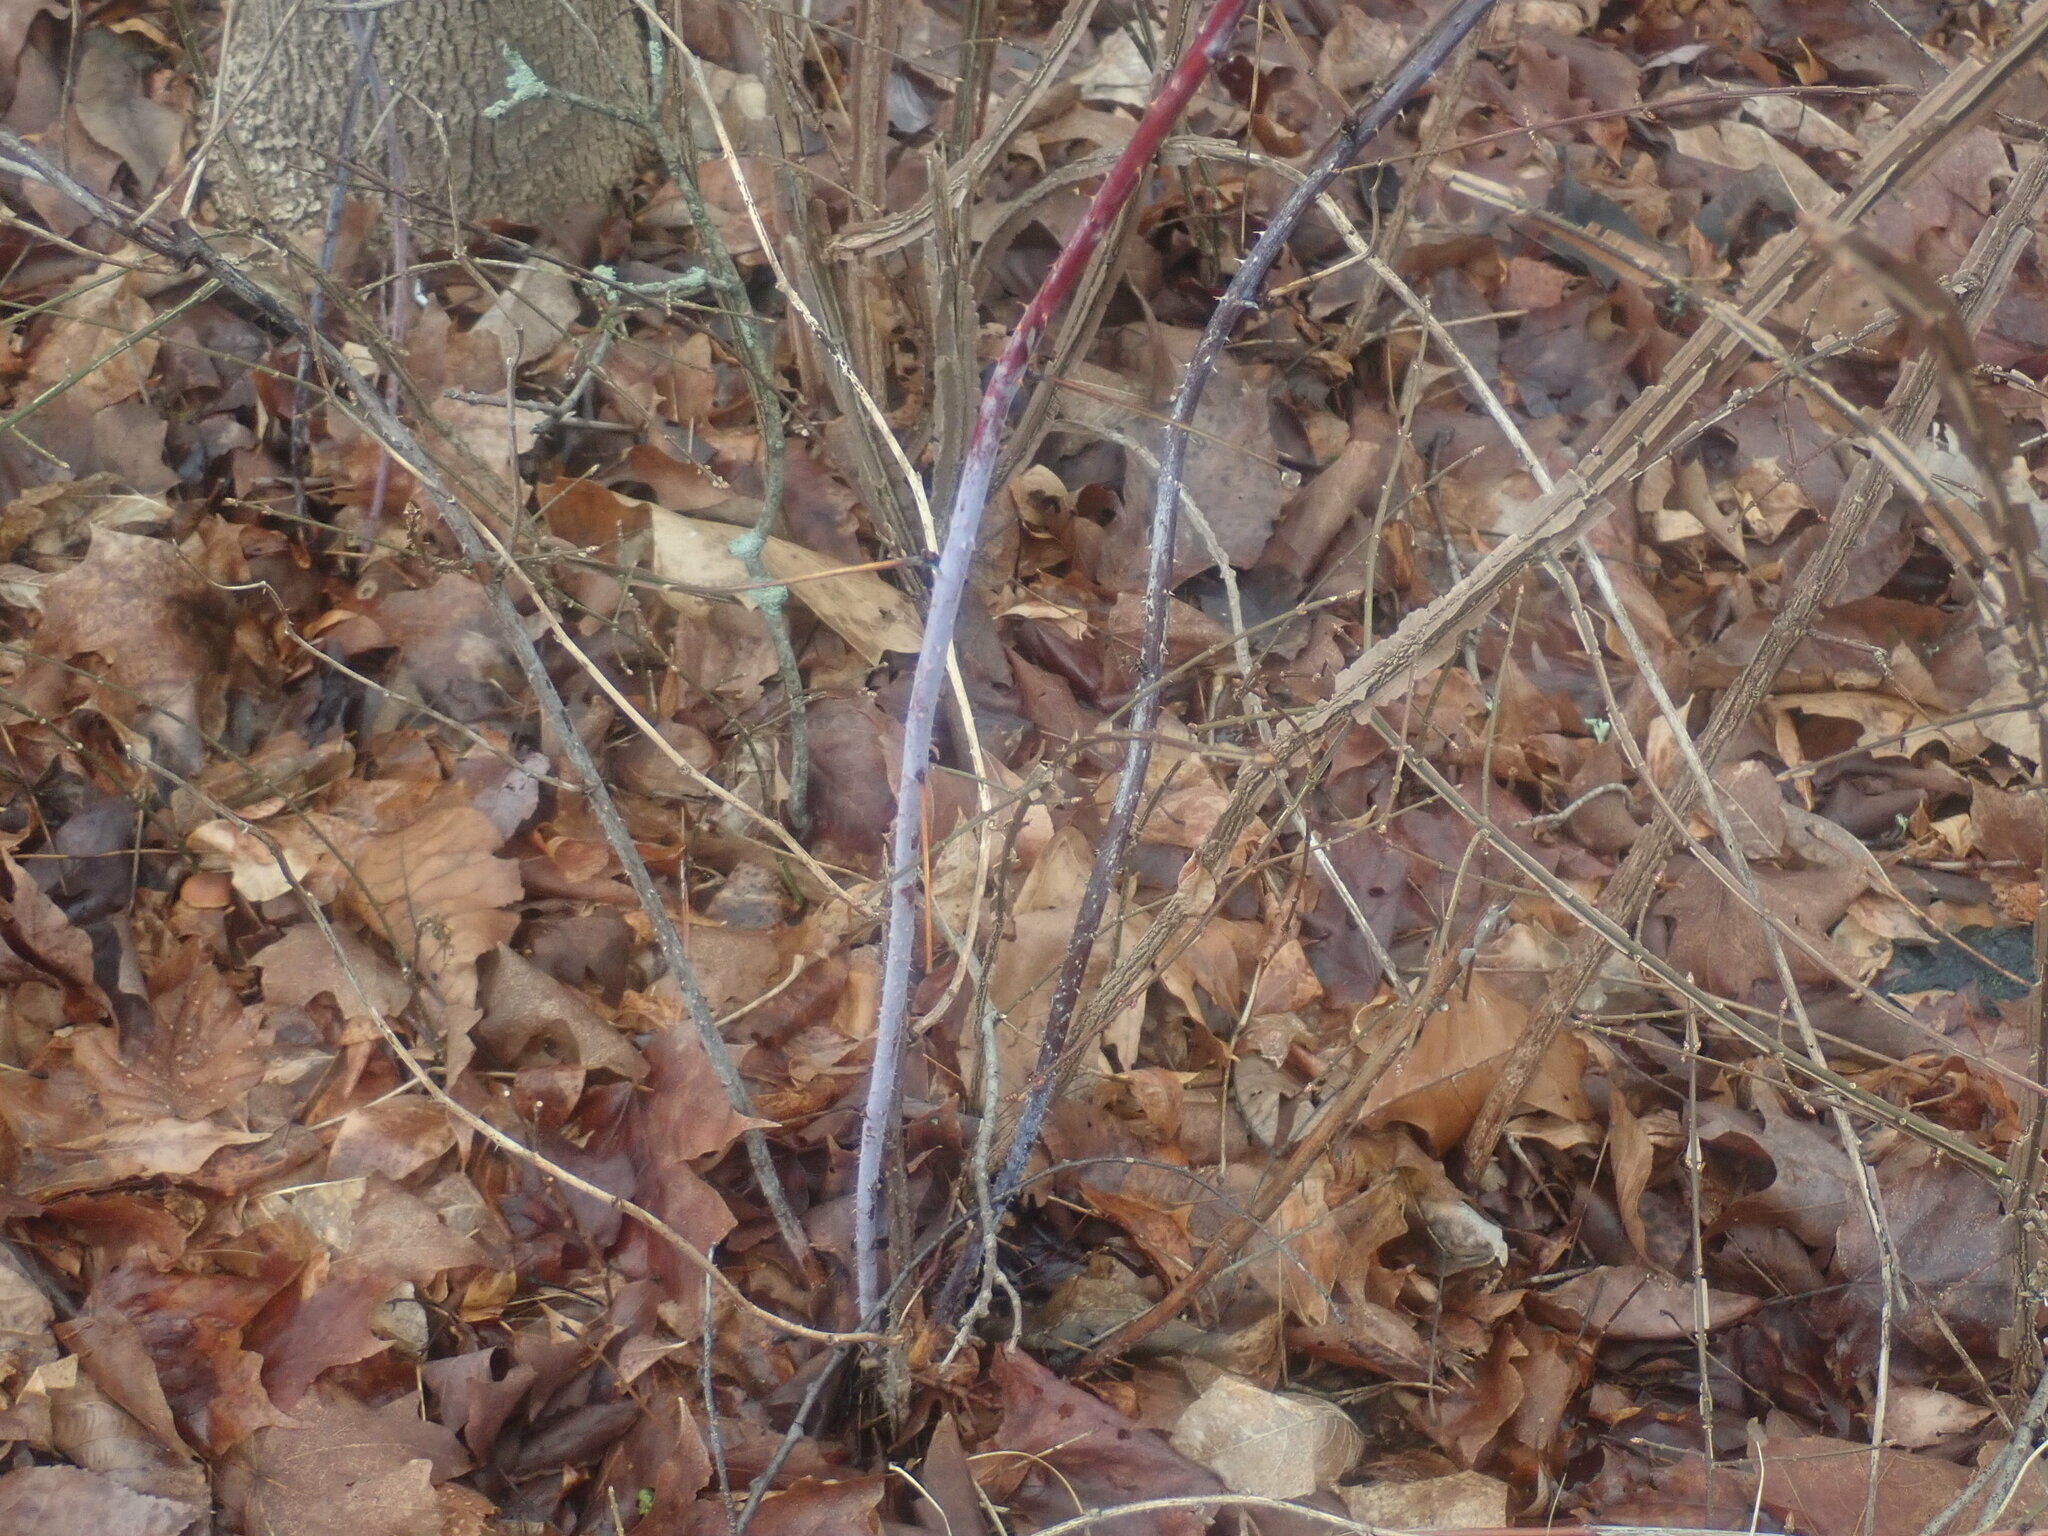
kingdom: Plantae
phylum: Tracheophyta
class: Magnoliopsida
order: Rosales
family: Rosaceae
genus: Rubus
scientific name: Rubus occidentalis
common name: Black raspberry
